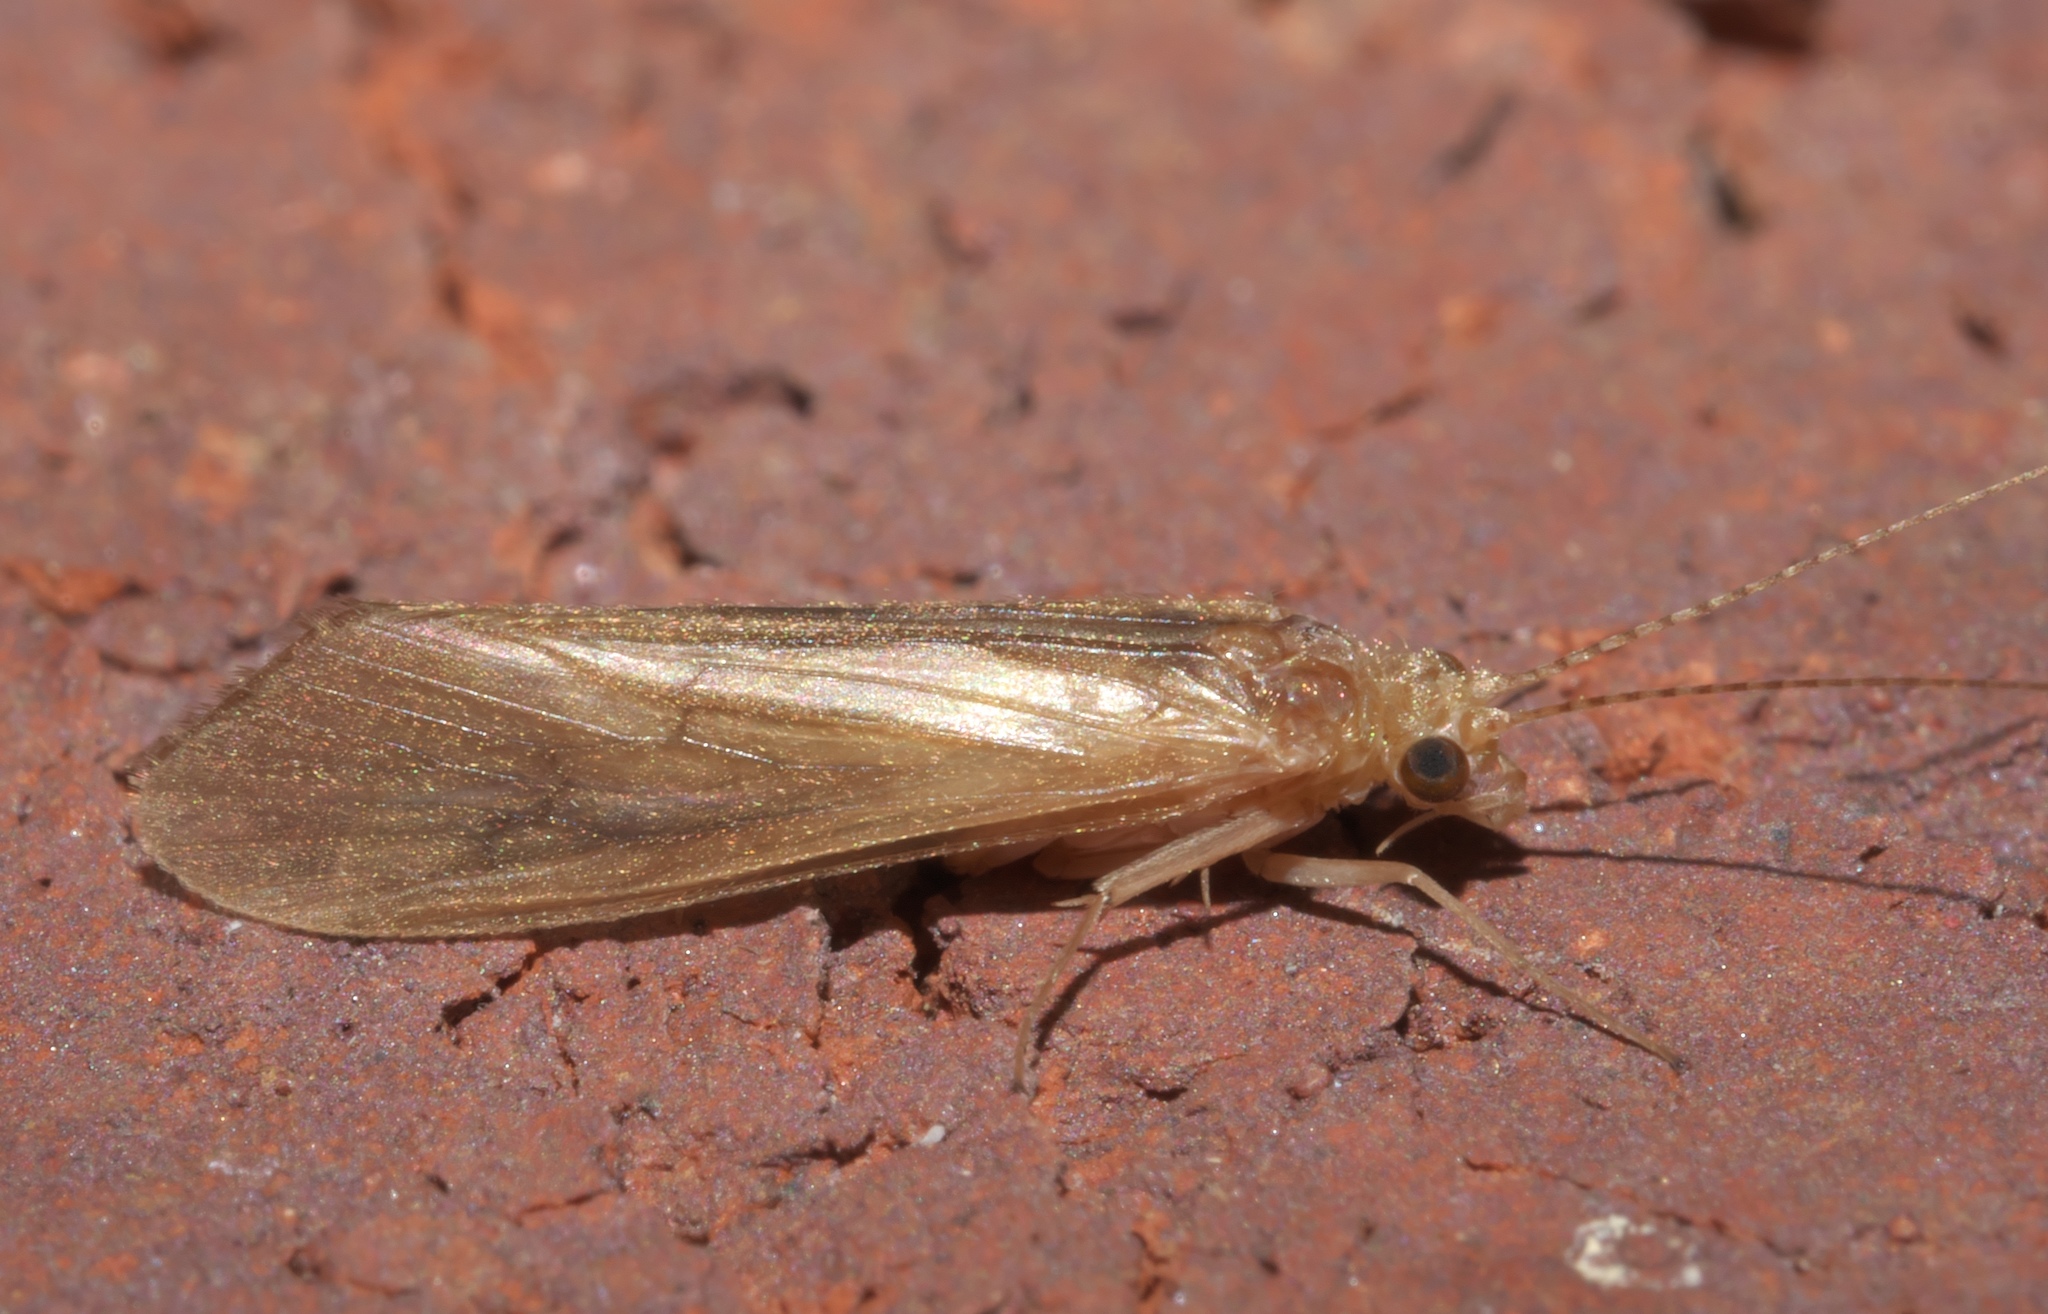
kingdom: Animalia
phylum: Arthropoda
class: Insecta
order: Trichoptera
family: Hydropsychidae
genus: Potamyia
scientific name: Potamyia flava
